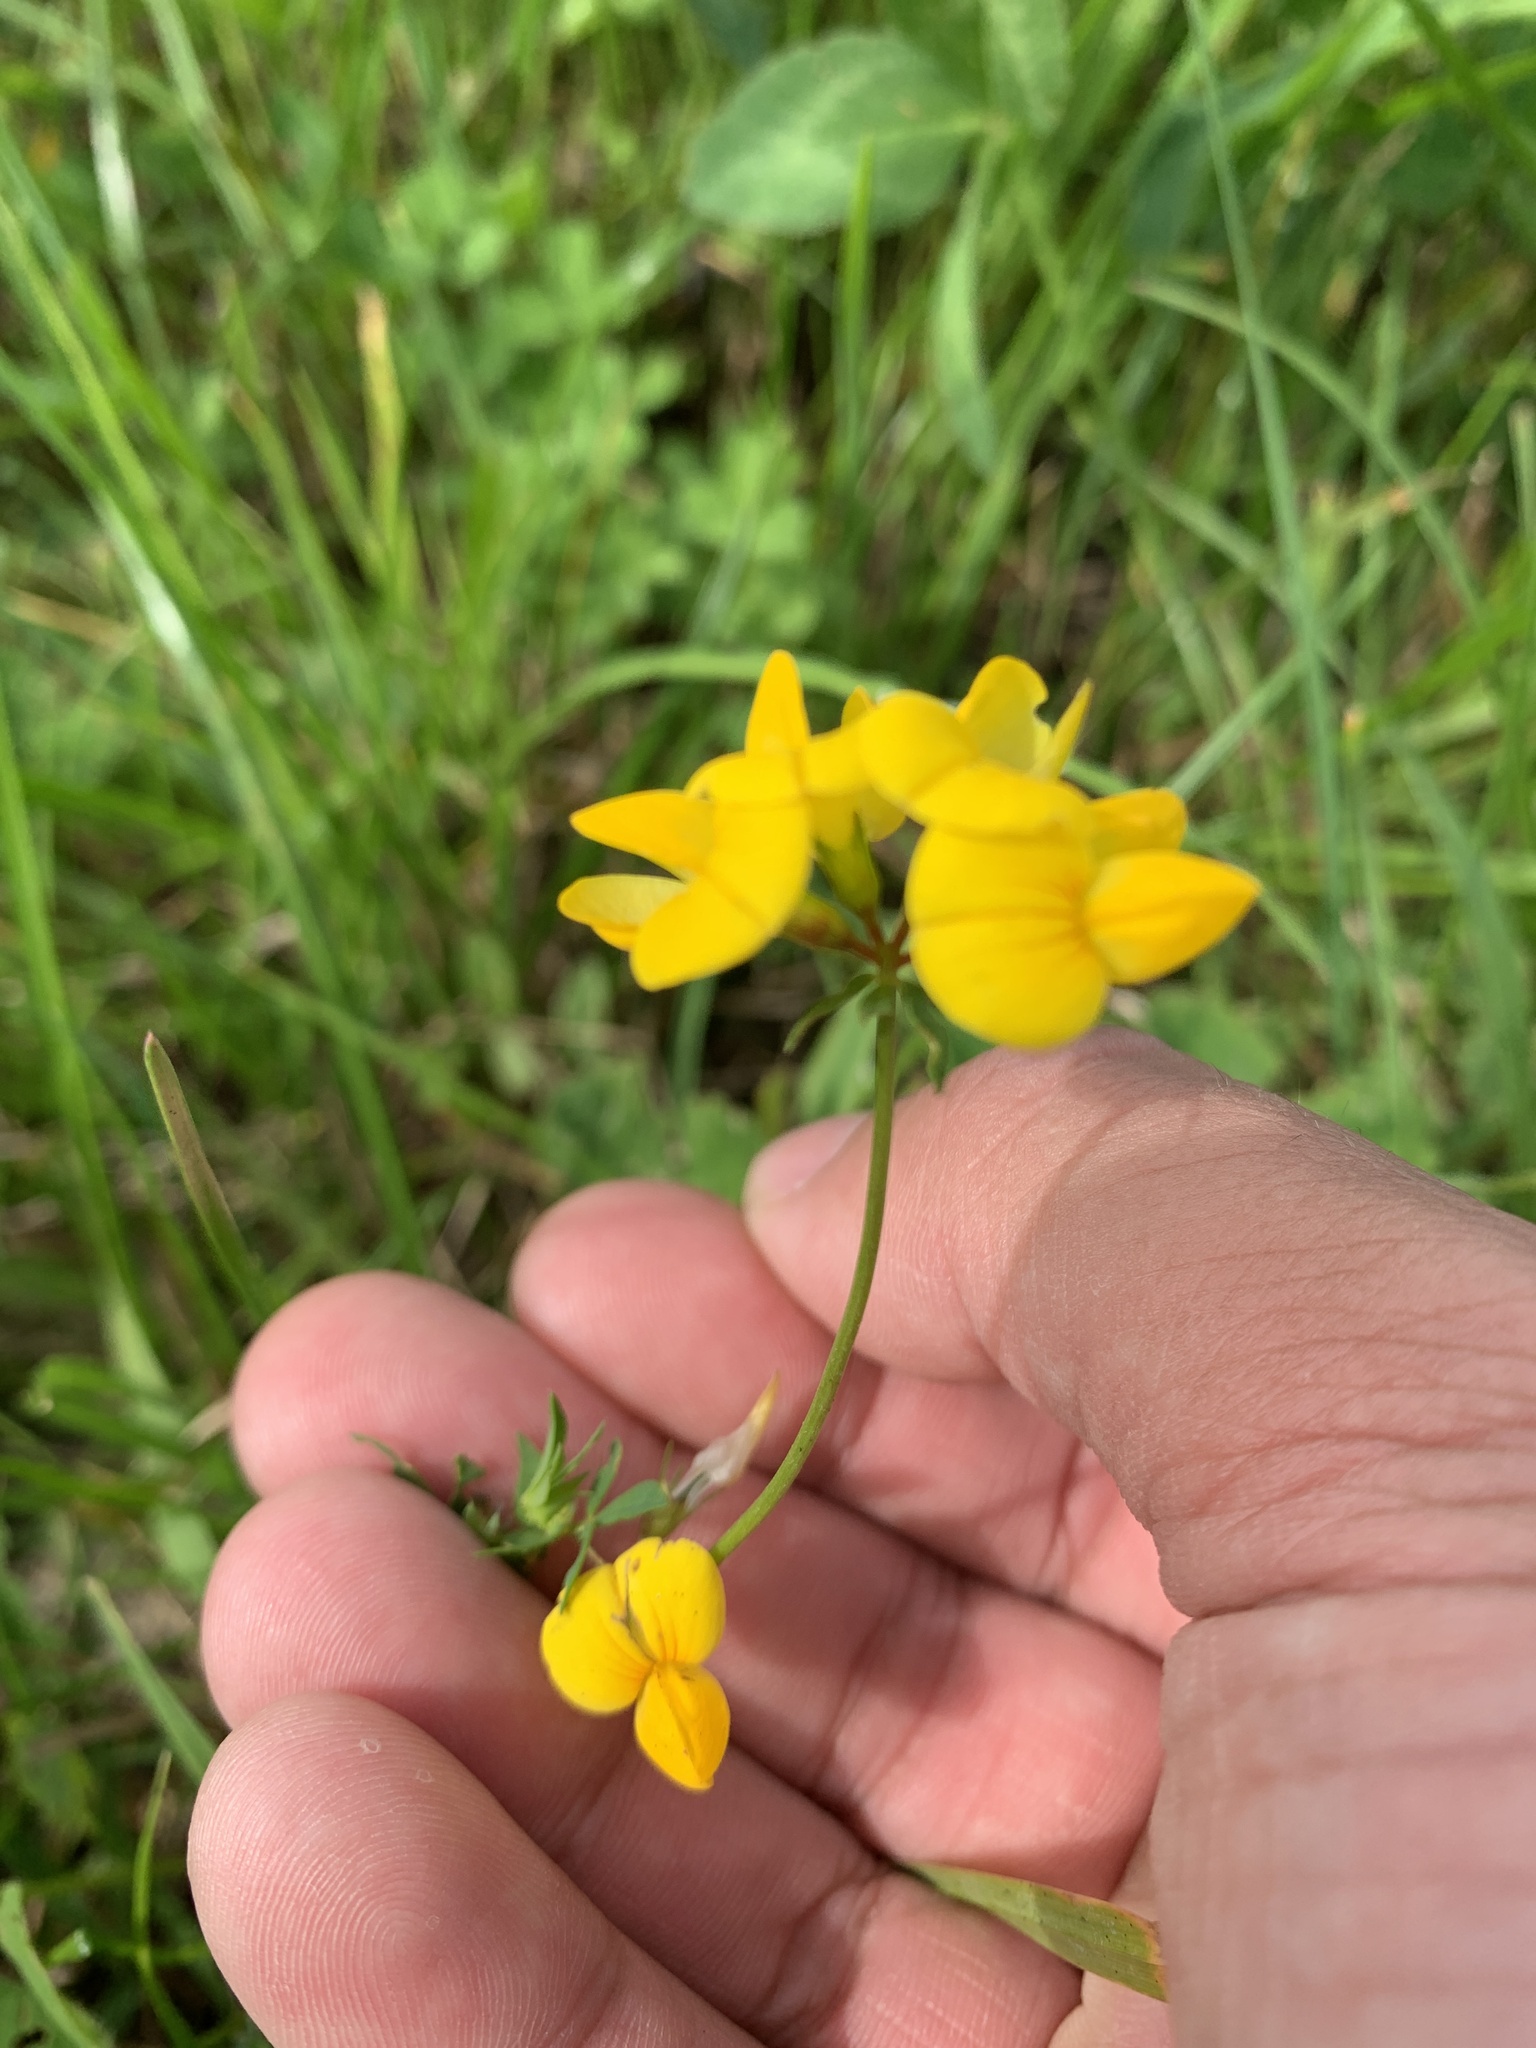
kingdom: Plantae
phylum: Tracheophyta
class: Magnoliopsida
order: Fabales
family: Fabaceae
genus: Lotus
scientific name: Lotus corniculatus
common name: Common bird's-foot-trefoil
